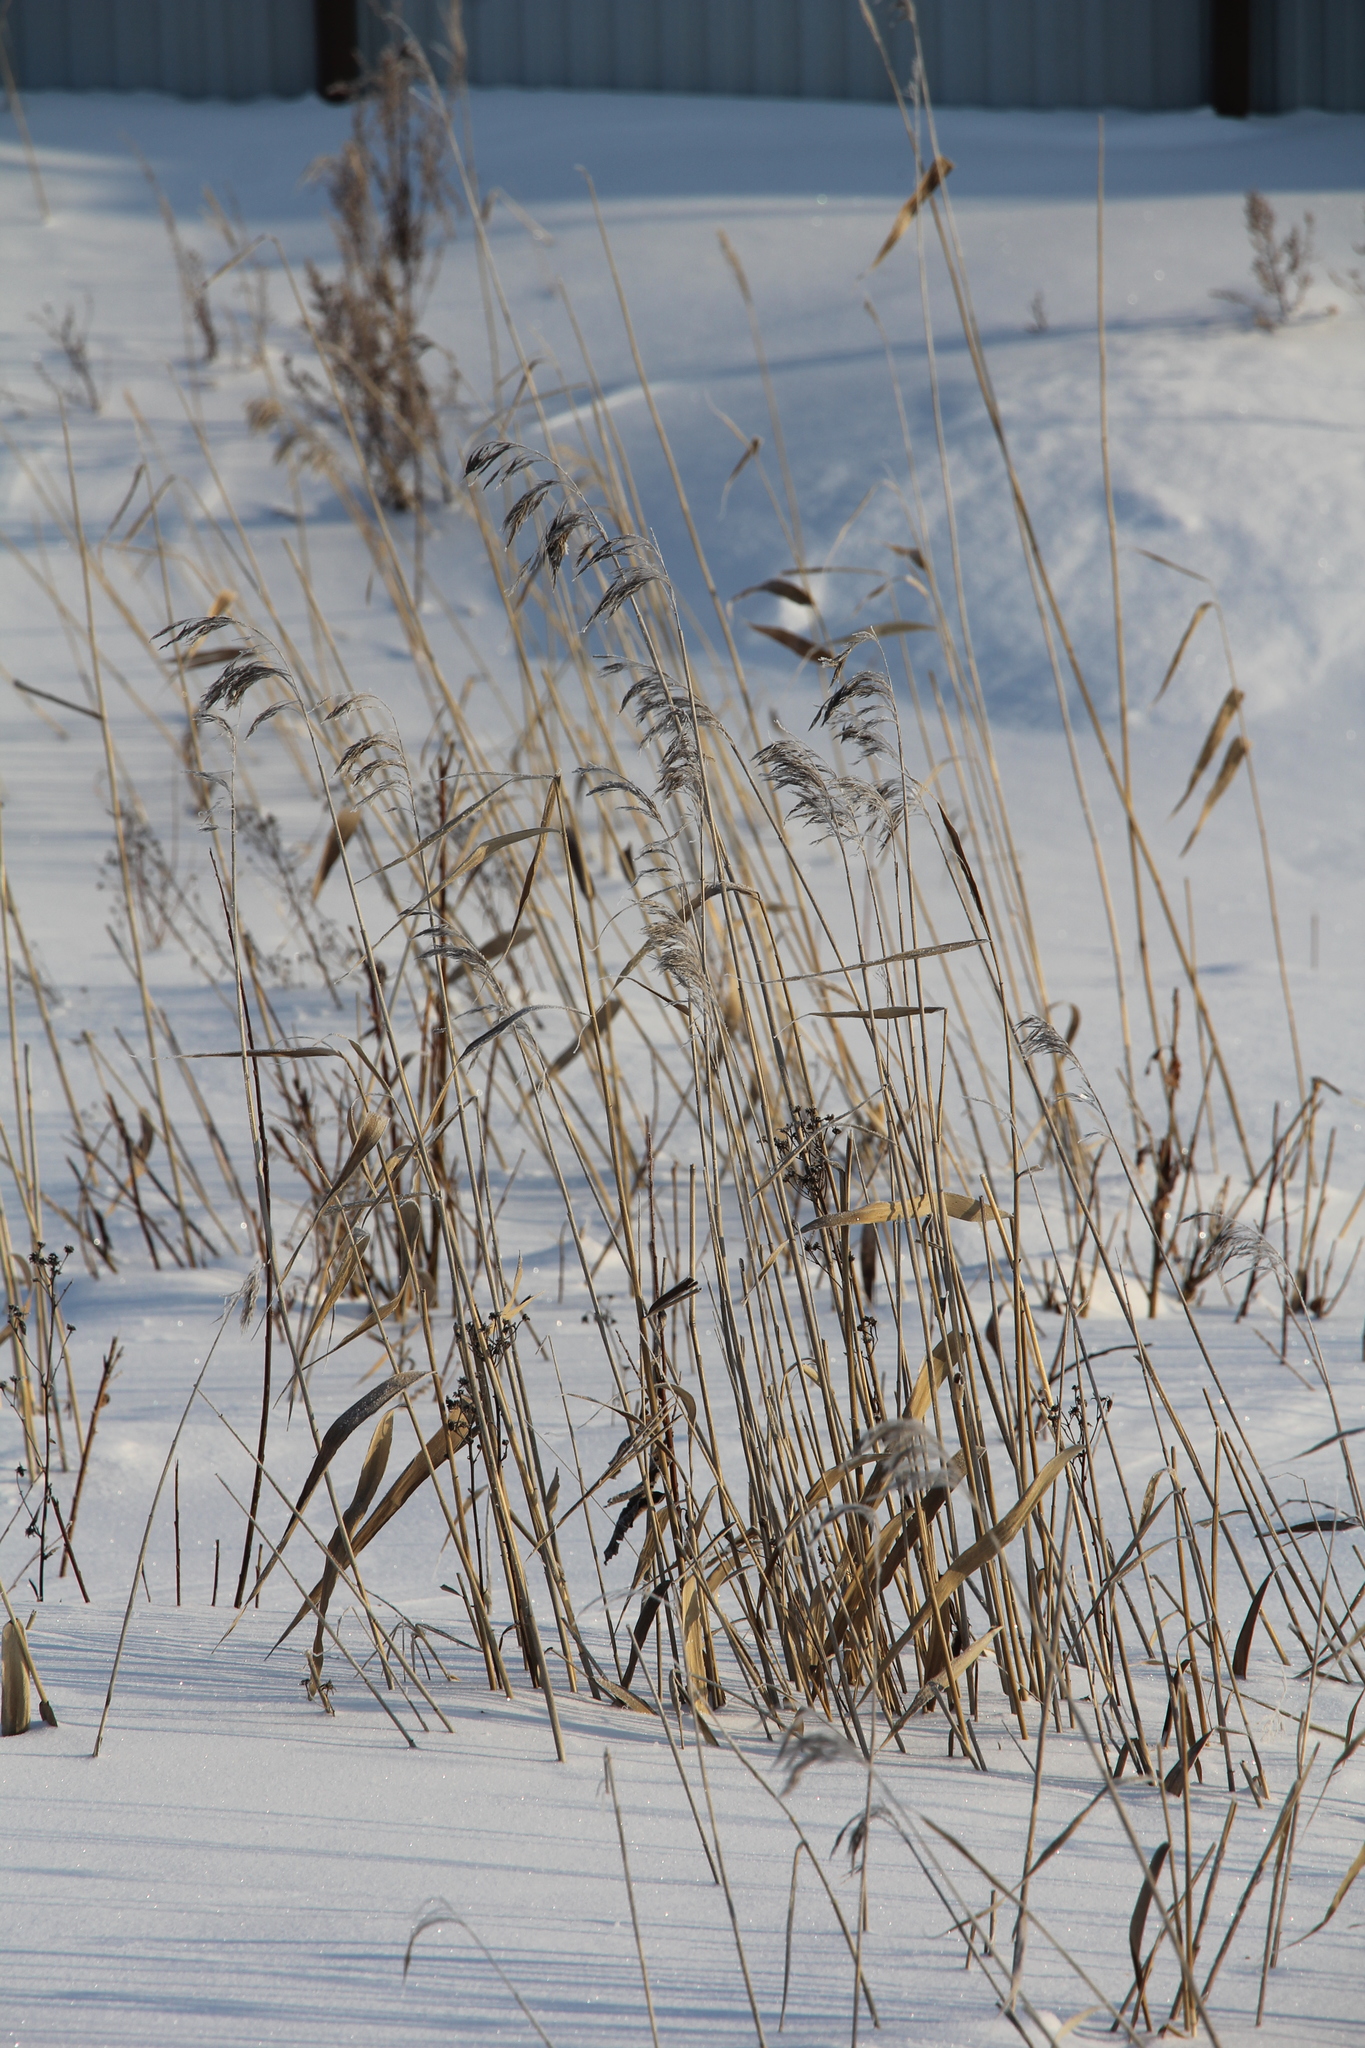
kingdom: Plantae
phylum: Tracheophyta
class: Liliopsida
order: Poales
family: Poaceae
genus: Phragmites
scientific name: Phragmites australis
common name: Common reed
